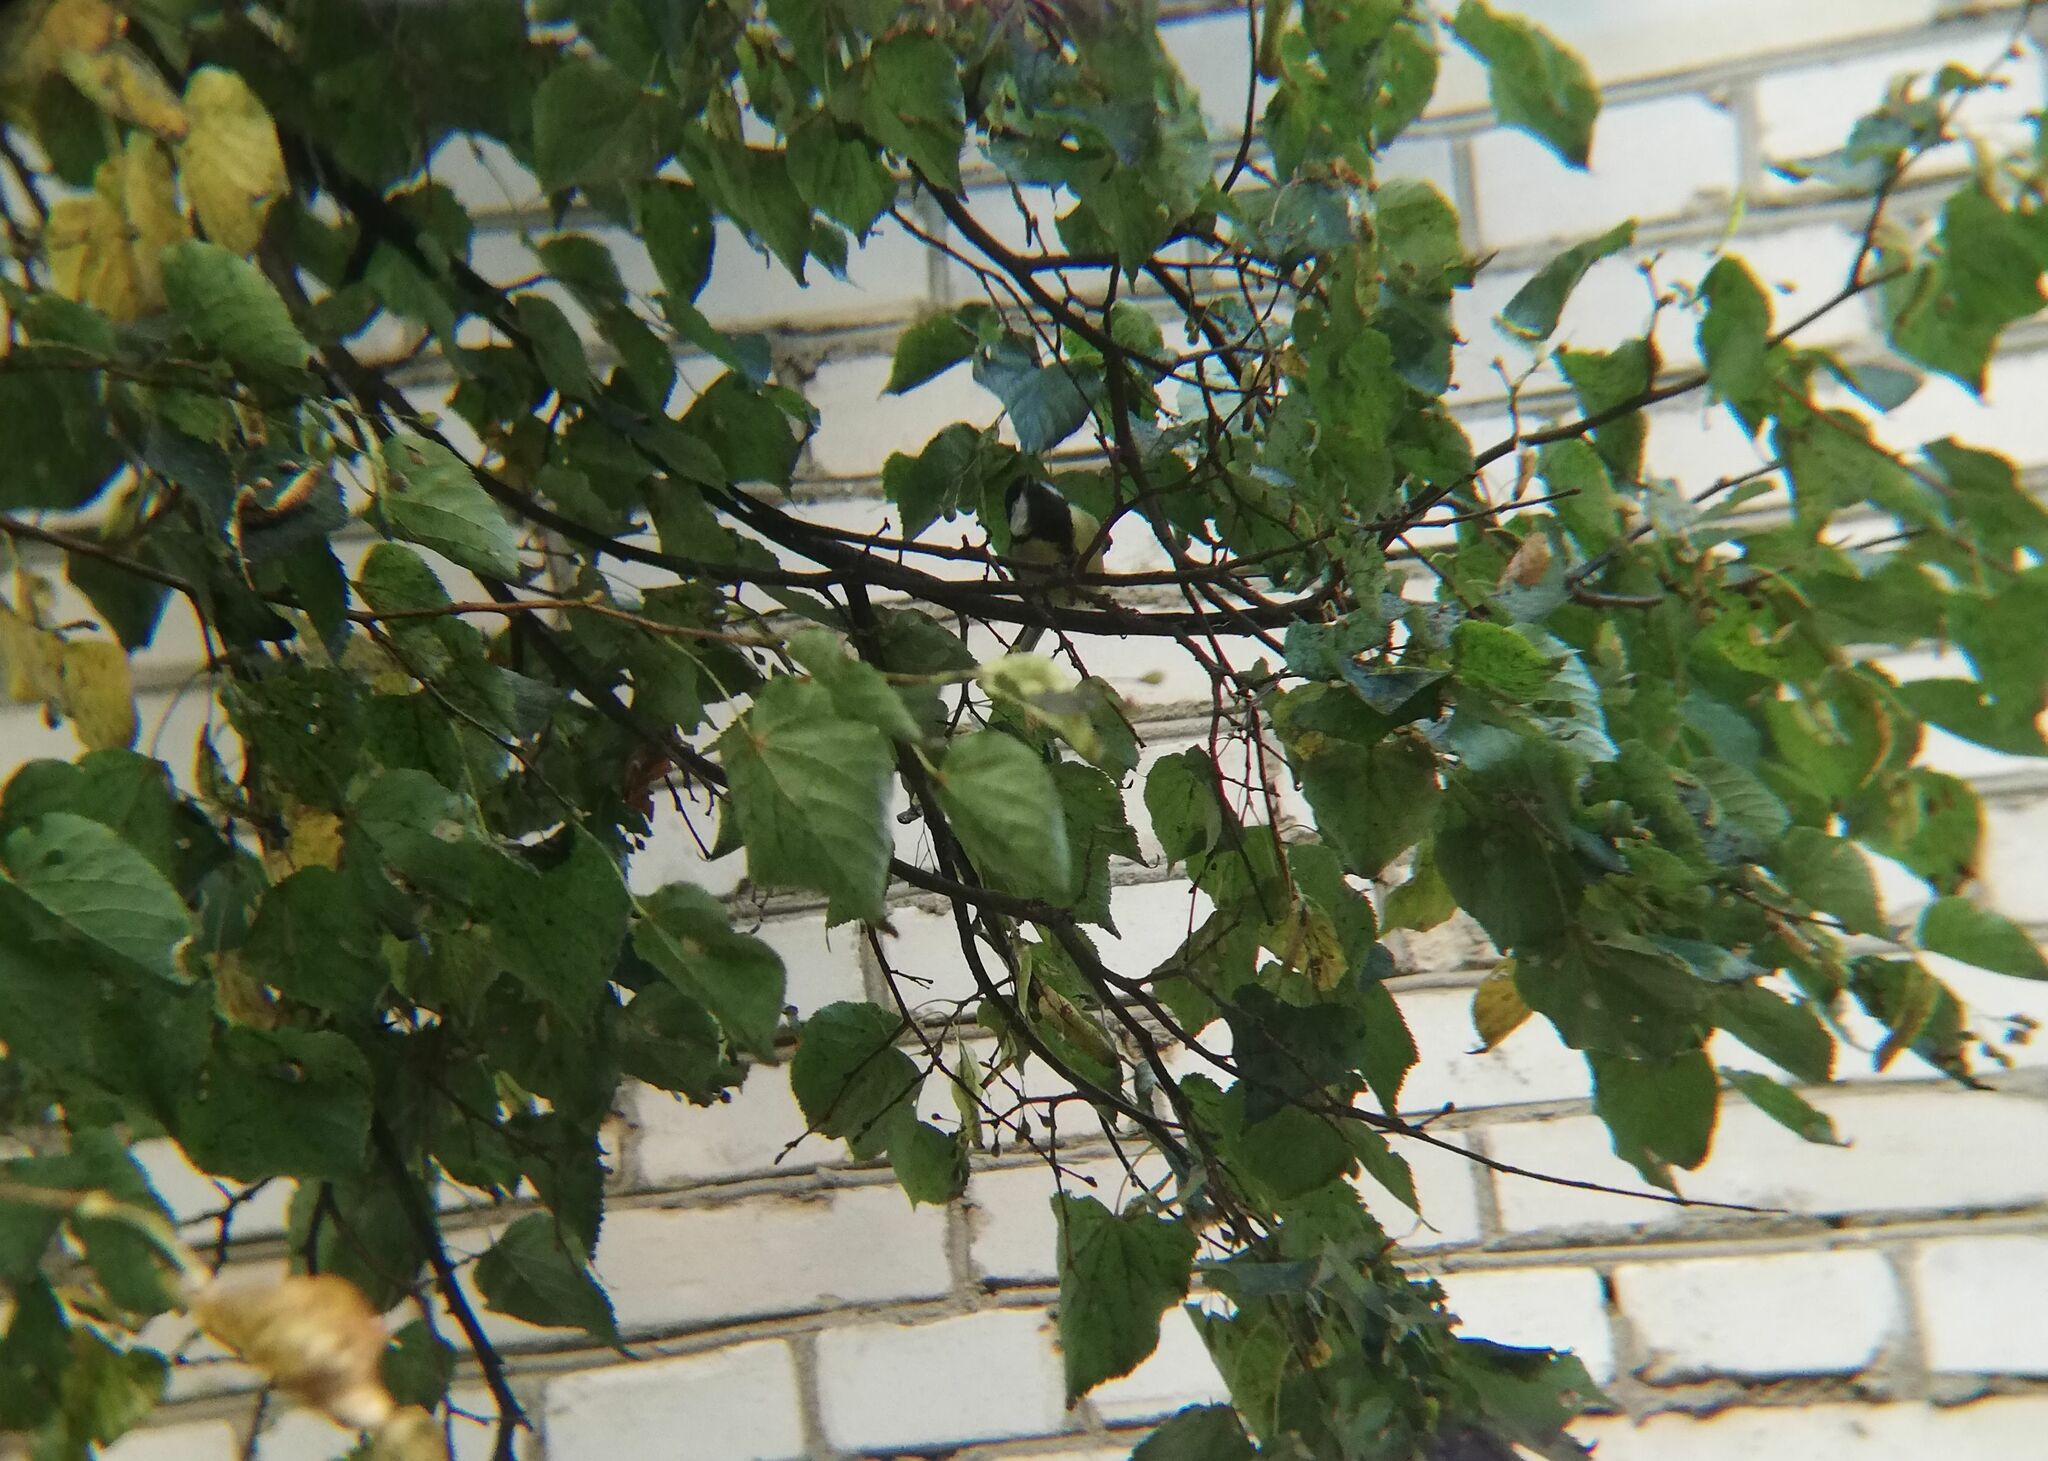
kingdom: Animalia
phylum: Chordata
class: Aves
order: Passeriformes
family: Paridae
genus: Parus
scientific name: Parus major
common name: Great tit
